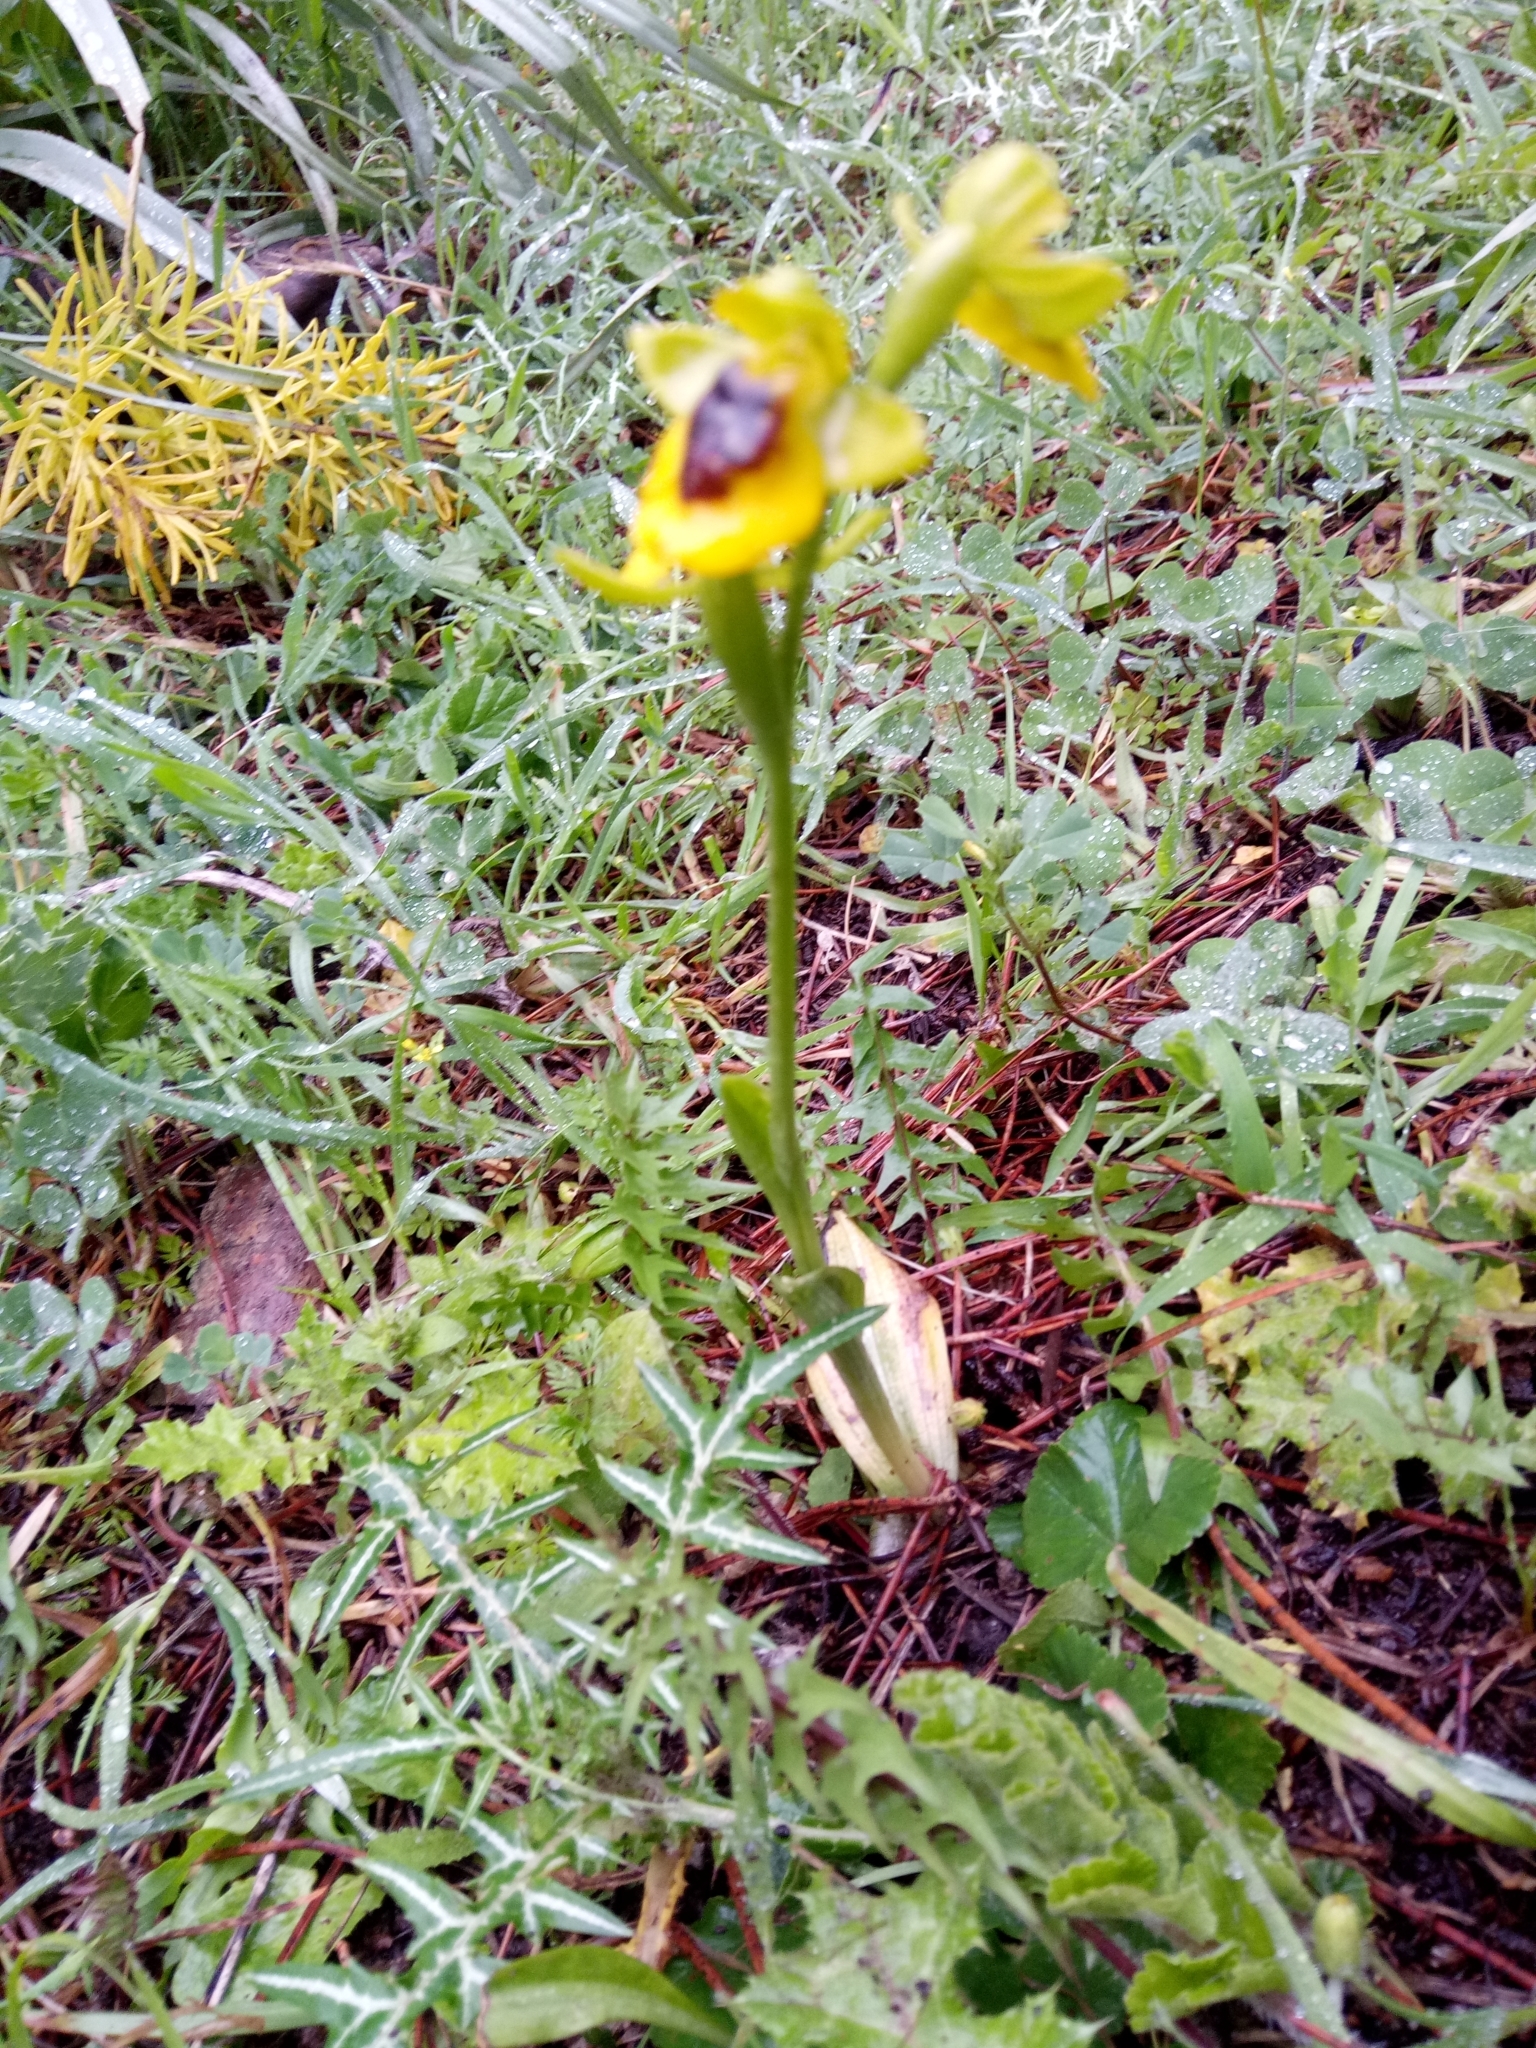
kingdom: Plantae
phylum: Tracheophyta
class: Liliopsida
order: Asparagales
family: Orchidaceae
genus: Ophrys
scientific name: Ophrys lutea
